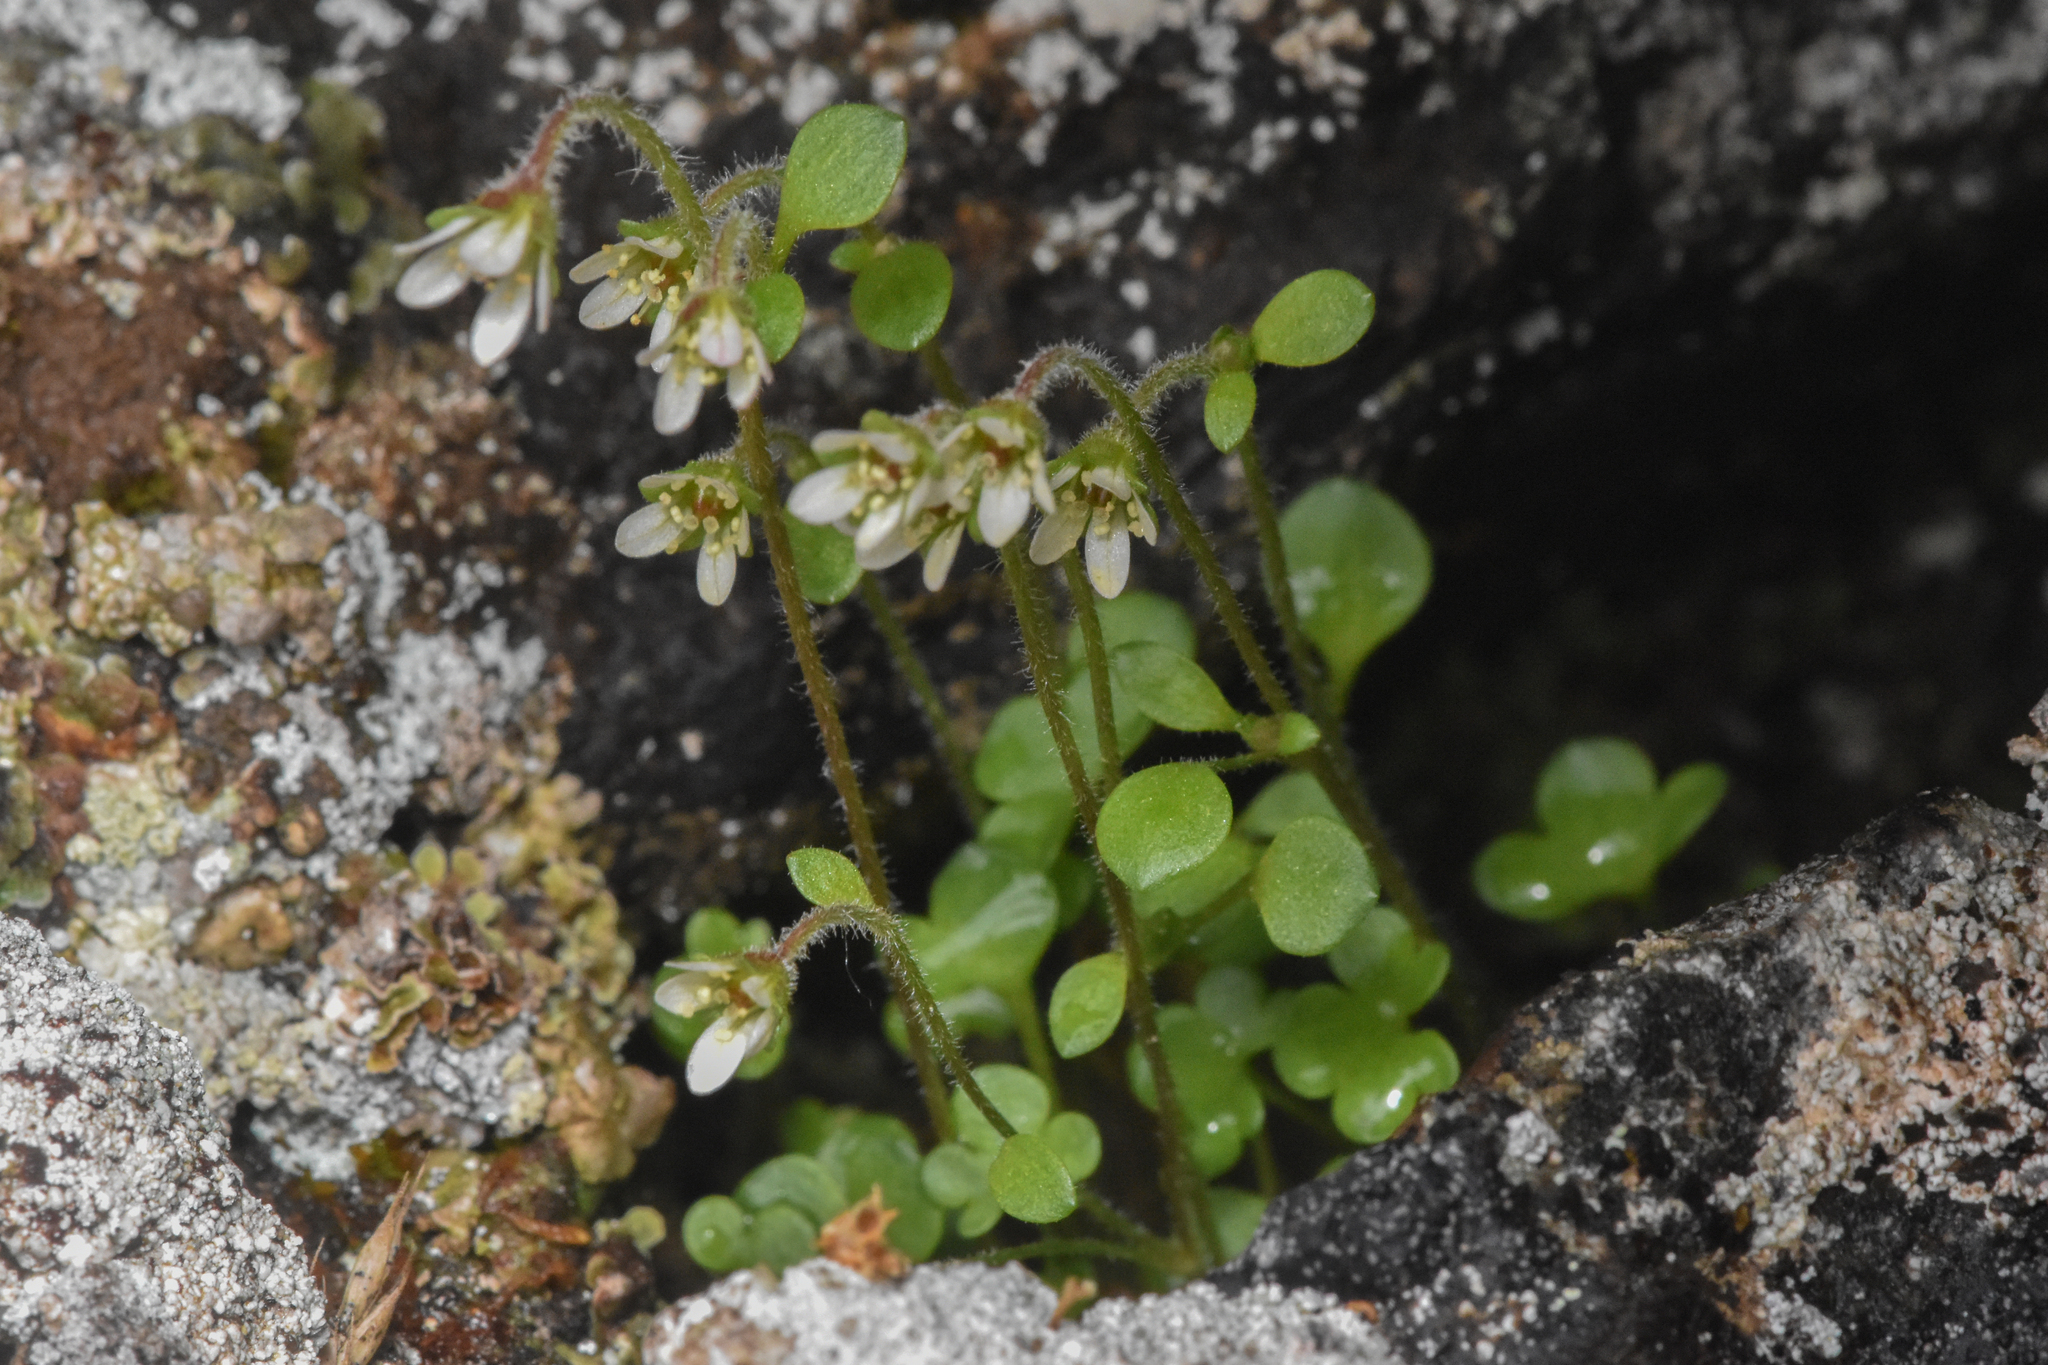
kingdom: Plantae
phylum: Tracheophyta
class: Magnoliopsida
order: Saxifragales
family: Saxifragaceae
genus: Saxifraga
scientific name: Saxifraga hyperborea
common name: Arctic saxifrage
